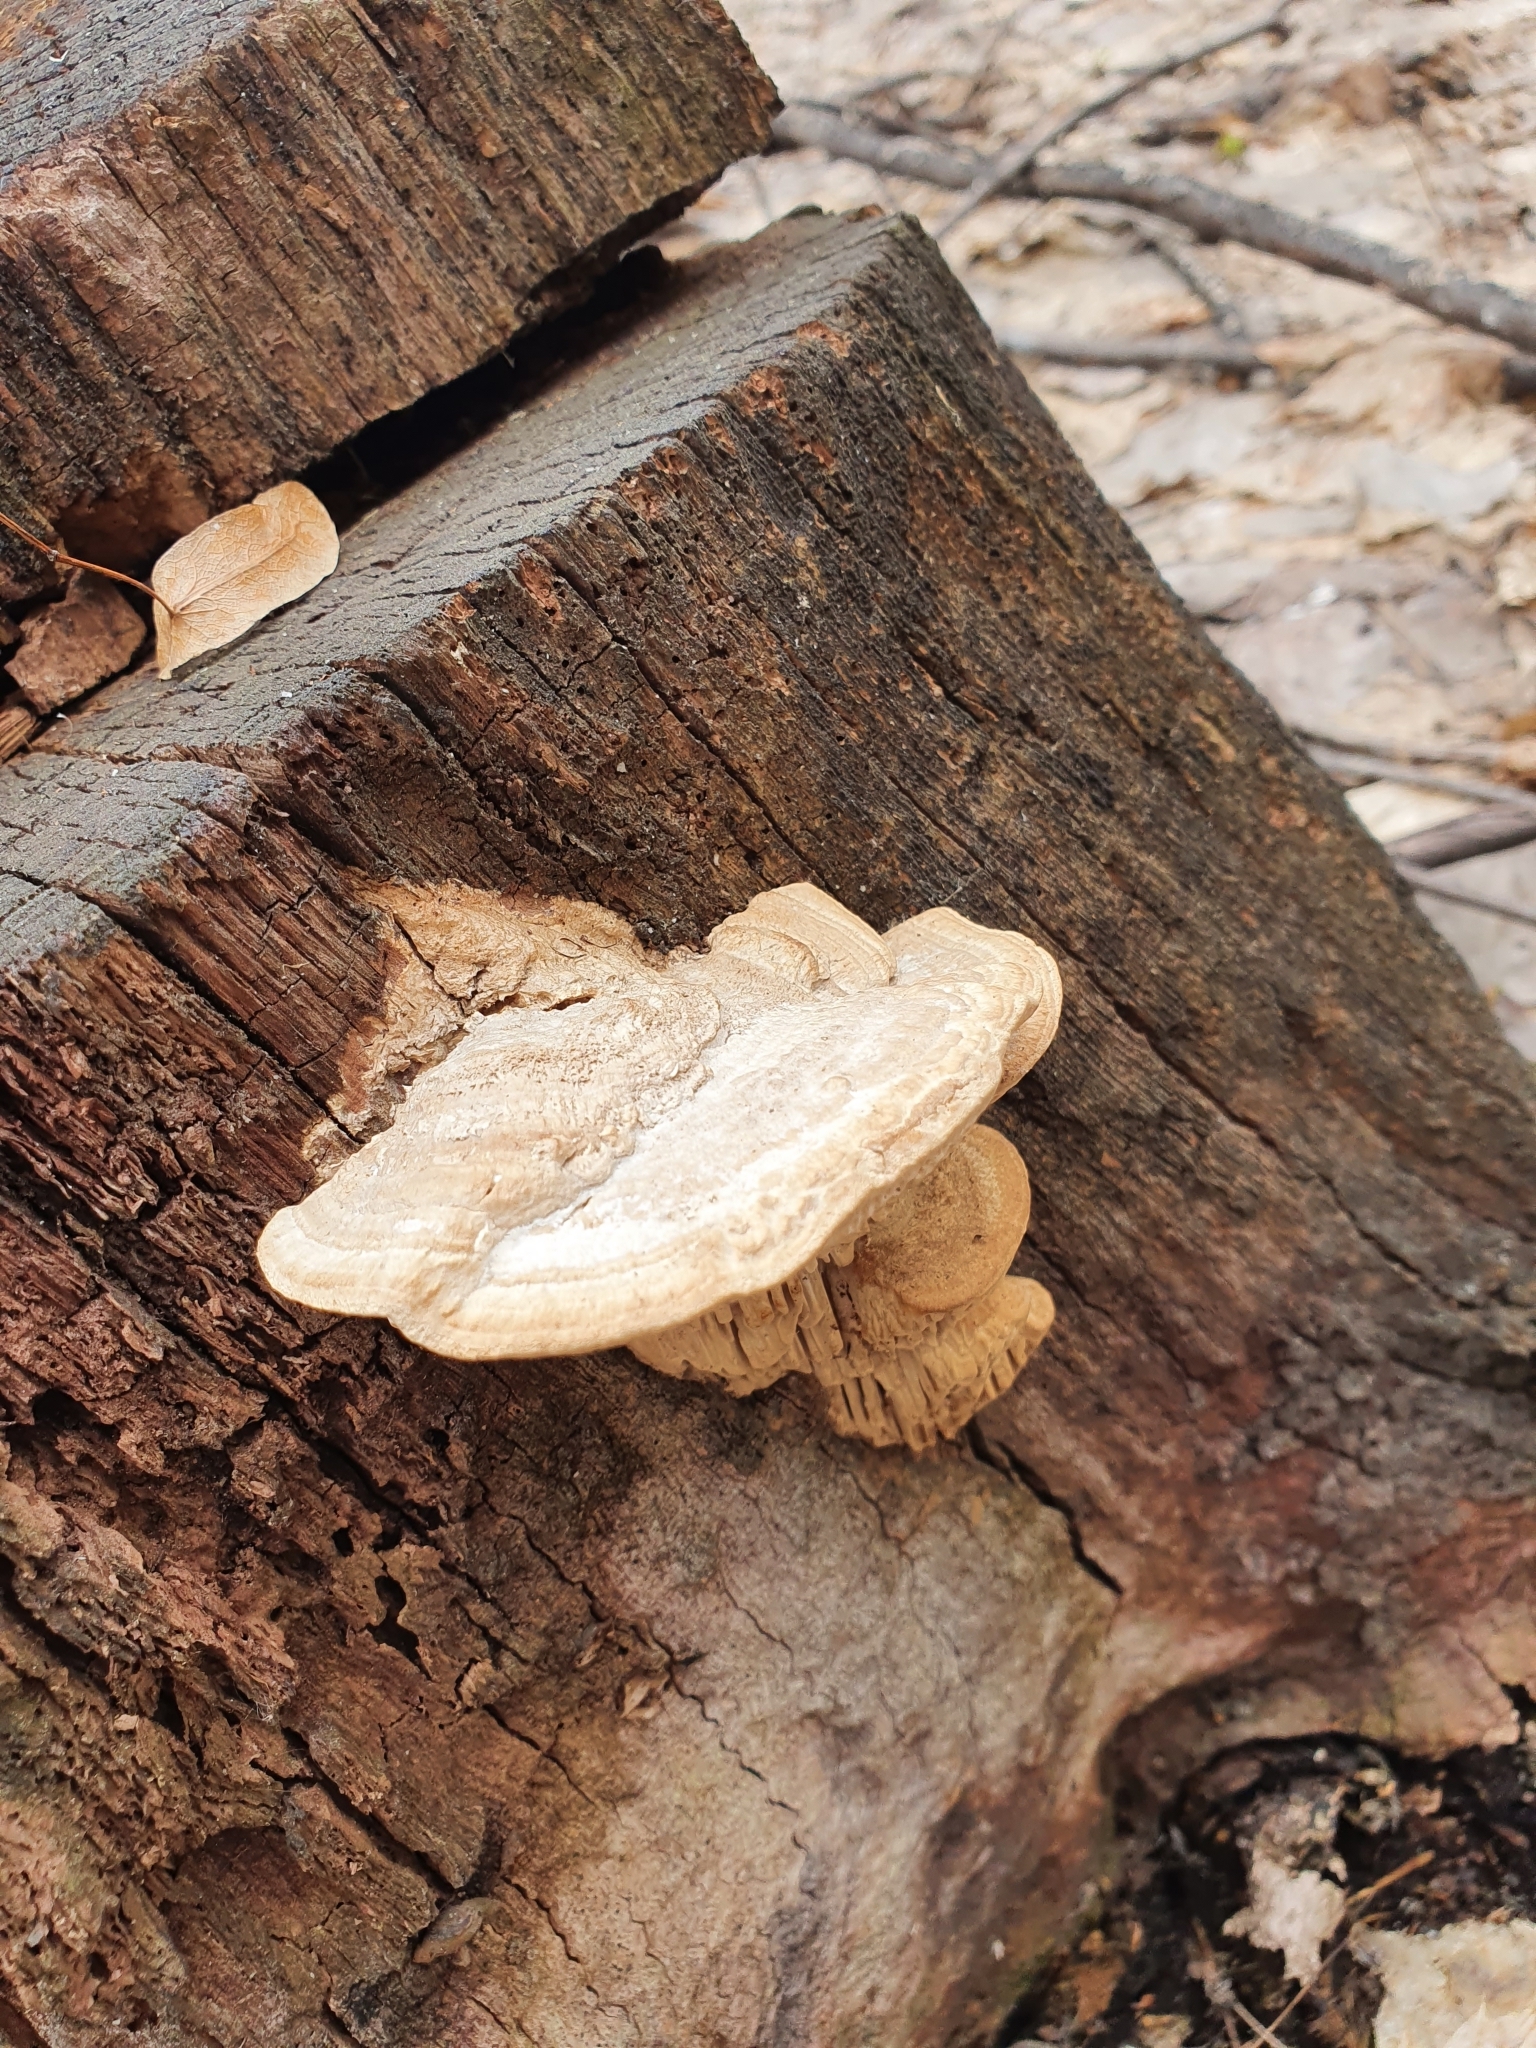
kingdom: Fungi
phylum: Basidiomycota
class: Agaricomycetes
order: Polyporales
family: Fomitopsidaceae
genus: Fomitopsis
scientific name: Fomitopsis
